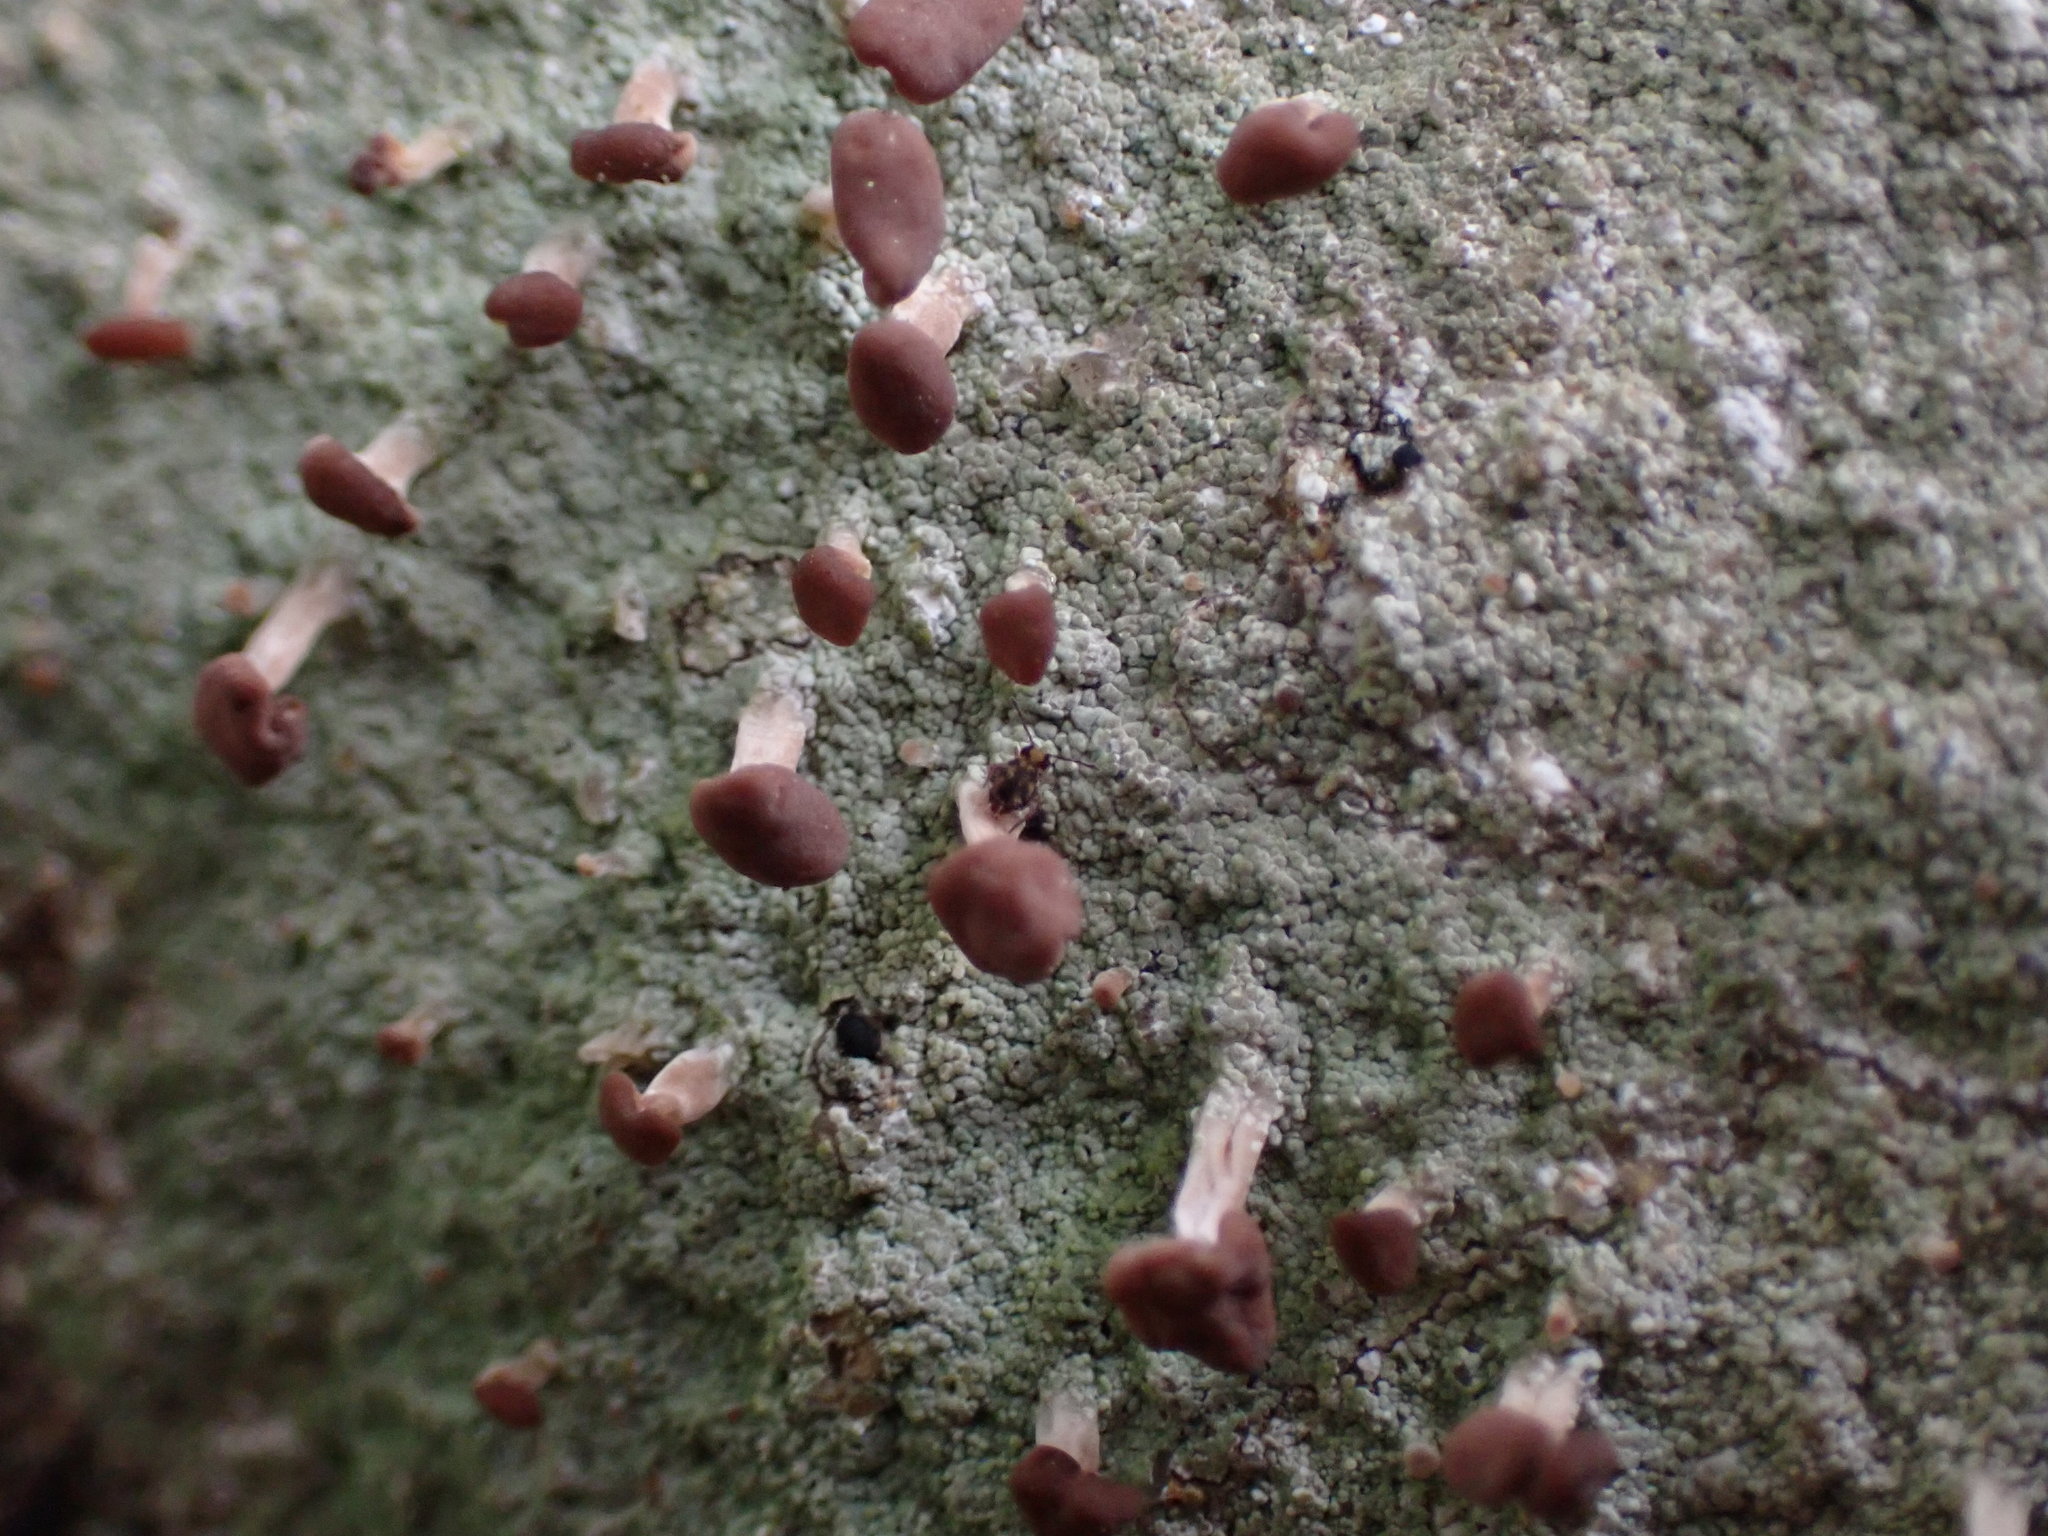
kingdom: Fungi
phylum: Ascomycota
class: Lecanoromycetes
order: Baeomycetales
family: Baeomycetaceae
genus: Baeomyces
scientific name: Baeomyces rufus
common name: Brown beret lichen
